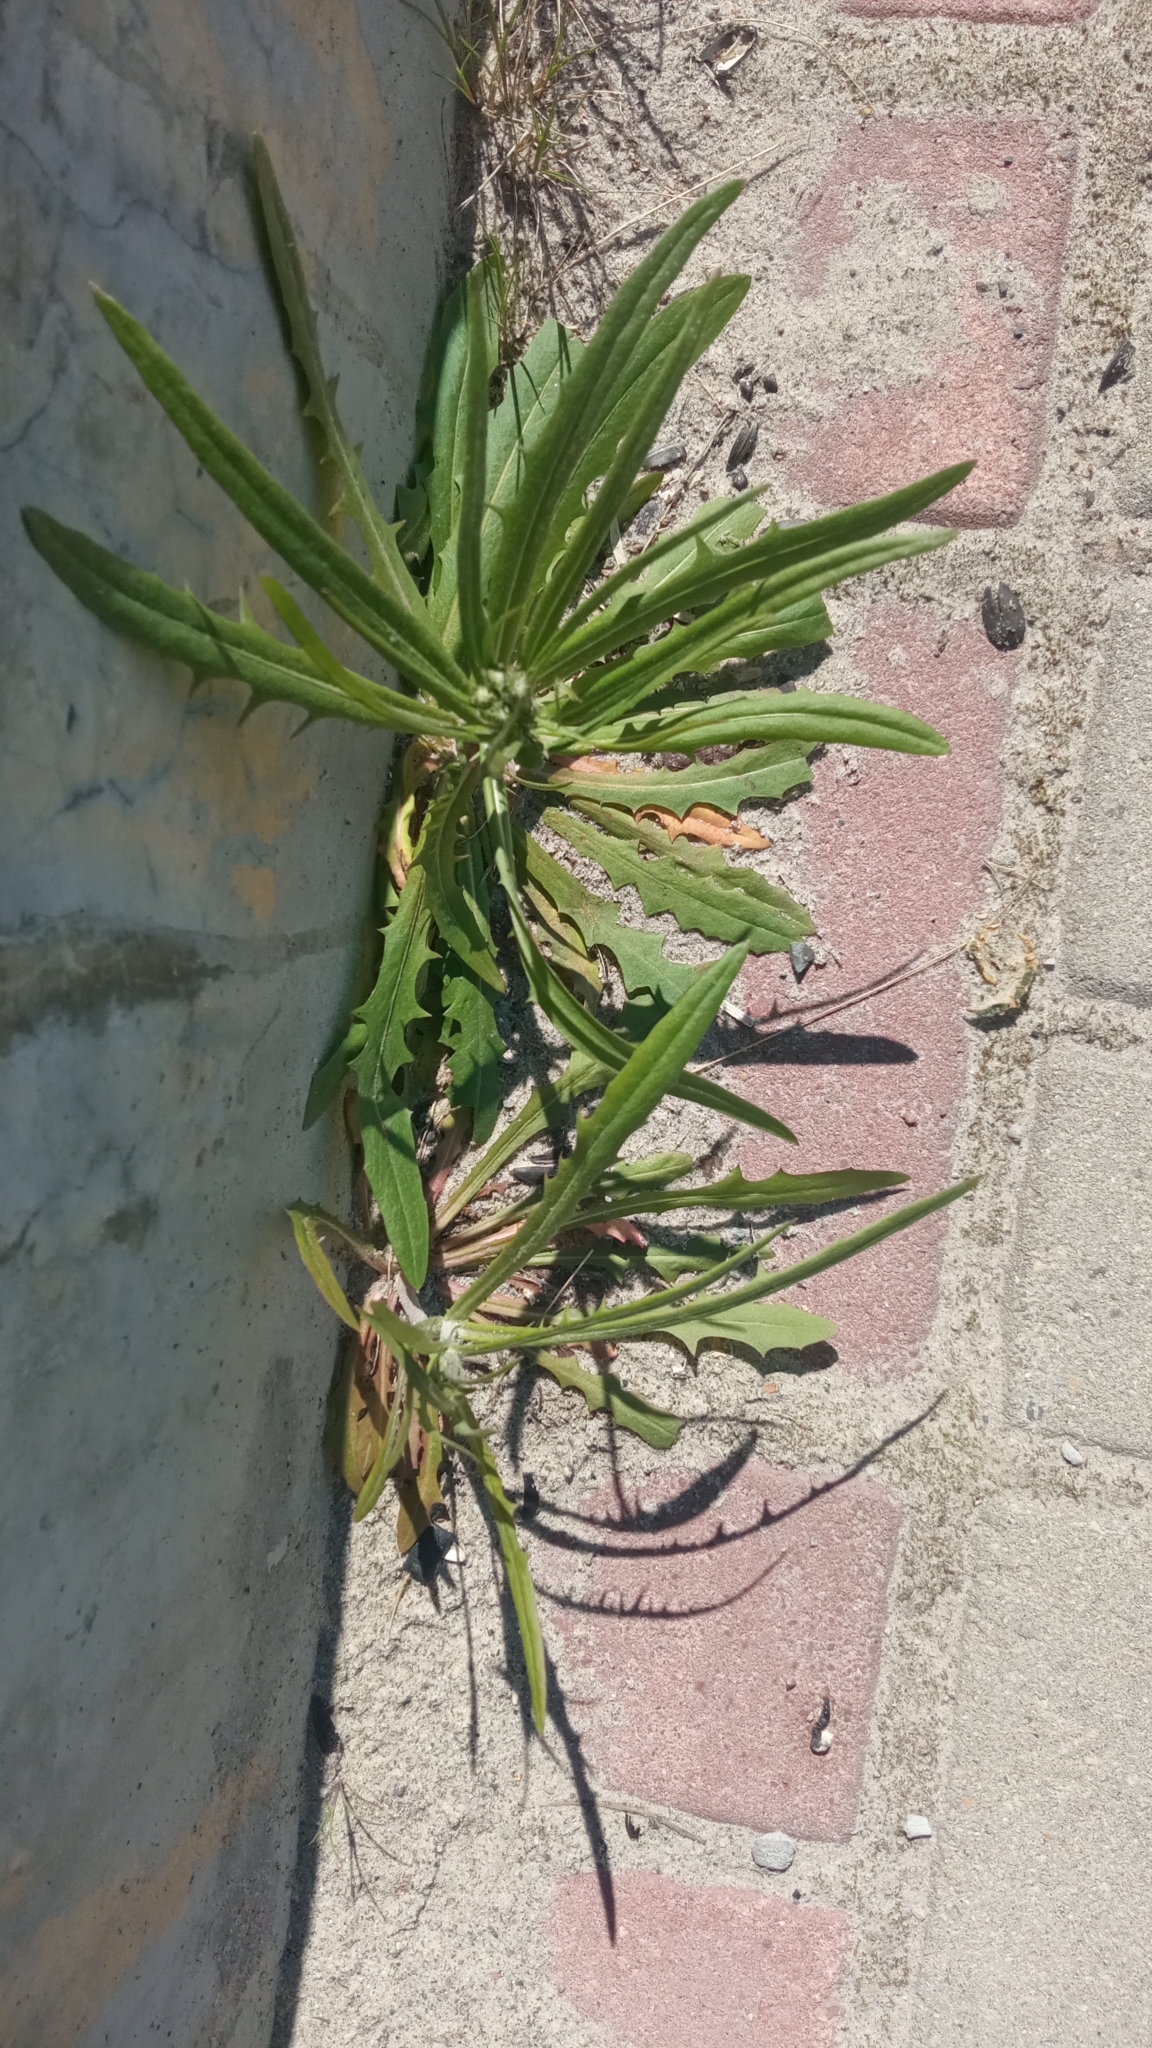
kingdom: Plantae
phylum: Tracheophyta
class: Magnoliopsida
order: Asterales
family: Asteraceae
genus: Crepis
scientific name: Crepis tectorum
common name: Narrow-leaved hawk's-beard
